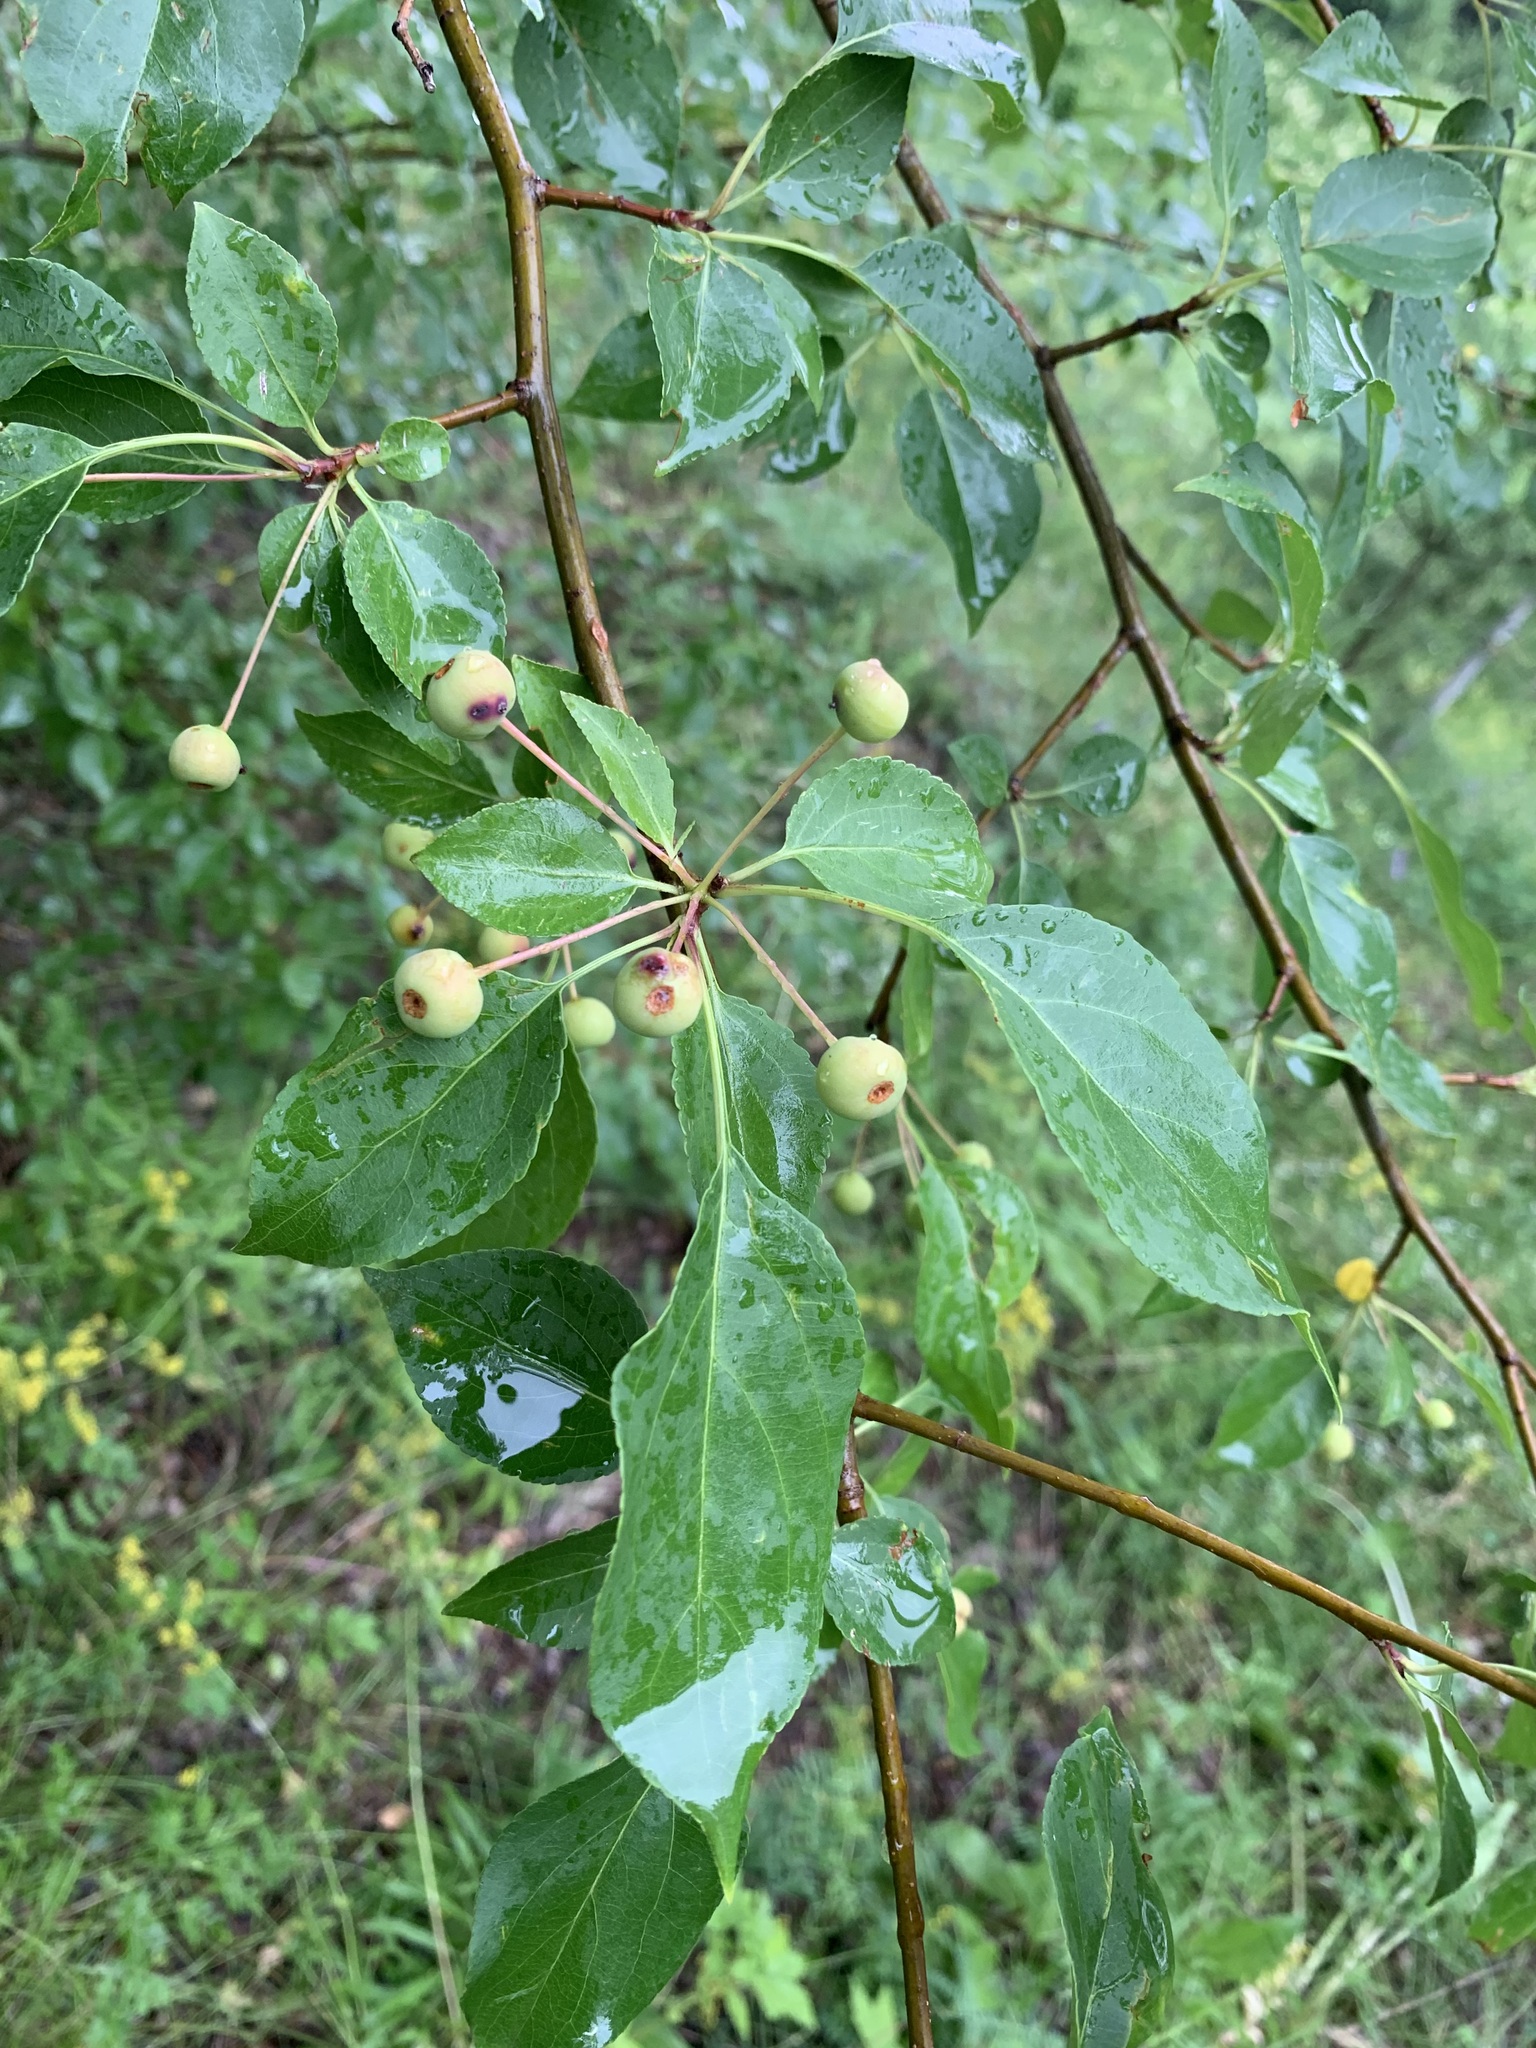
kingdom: Plantae
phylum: Tracheophyta
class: Magnoliopsida
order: Rosales
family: Rosaceae
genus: Malus
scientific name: Malus baccata
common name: Siberian crab
